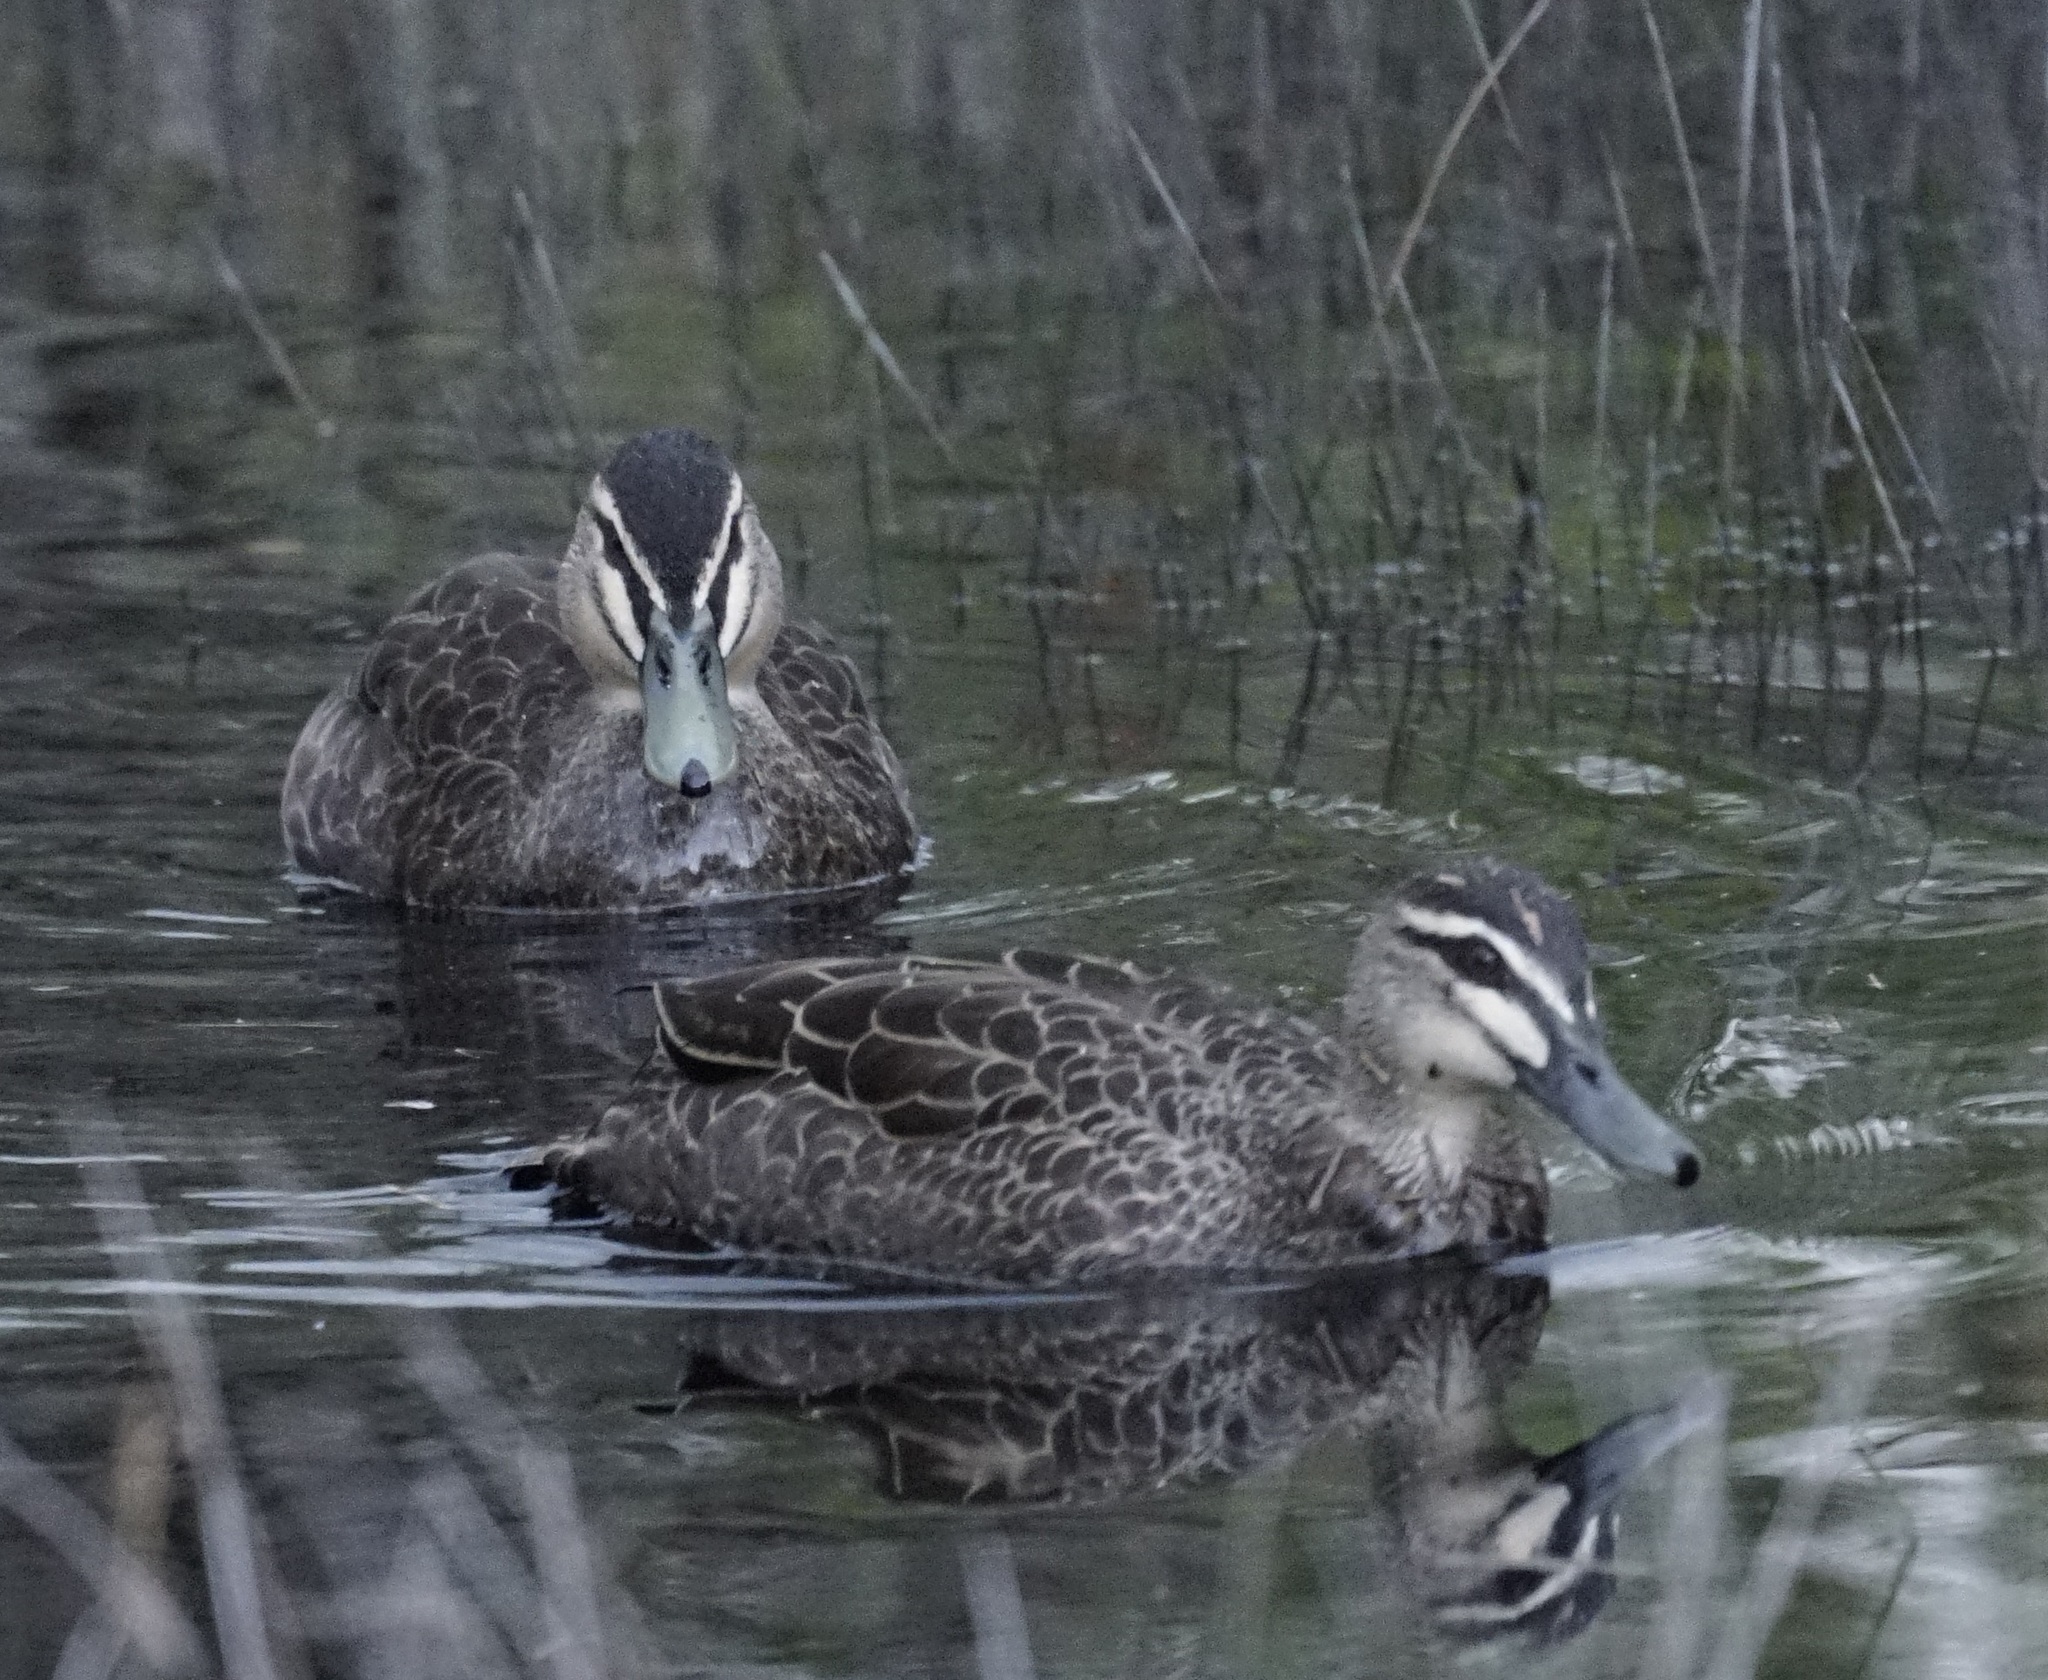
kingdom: Animalia
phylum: Chordata
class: Aves
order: Anseriformes
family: Anatidae
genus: Anas
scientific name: Anas superciliosa
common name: Pacific black duck
